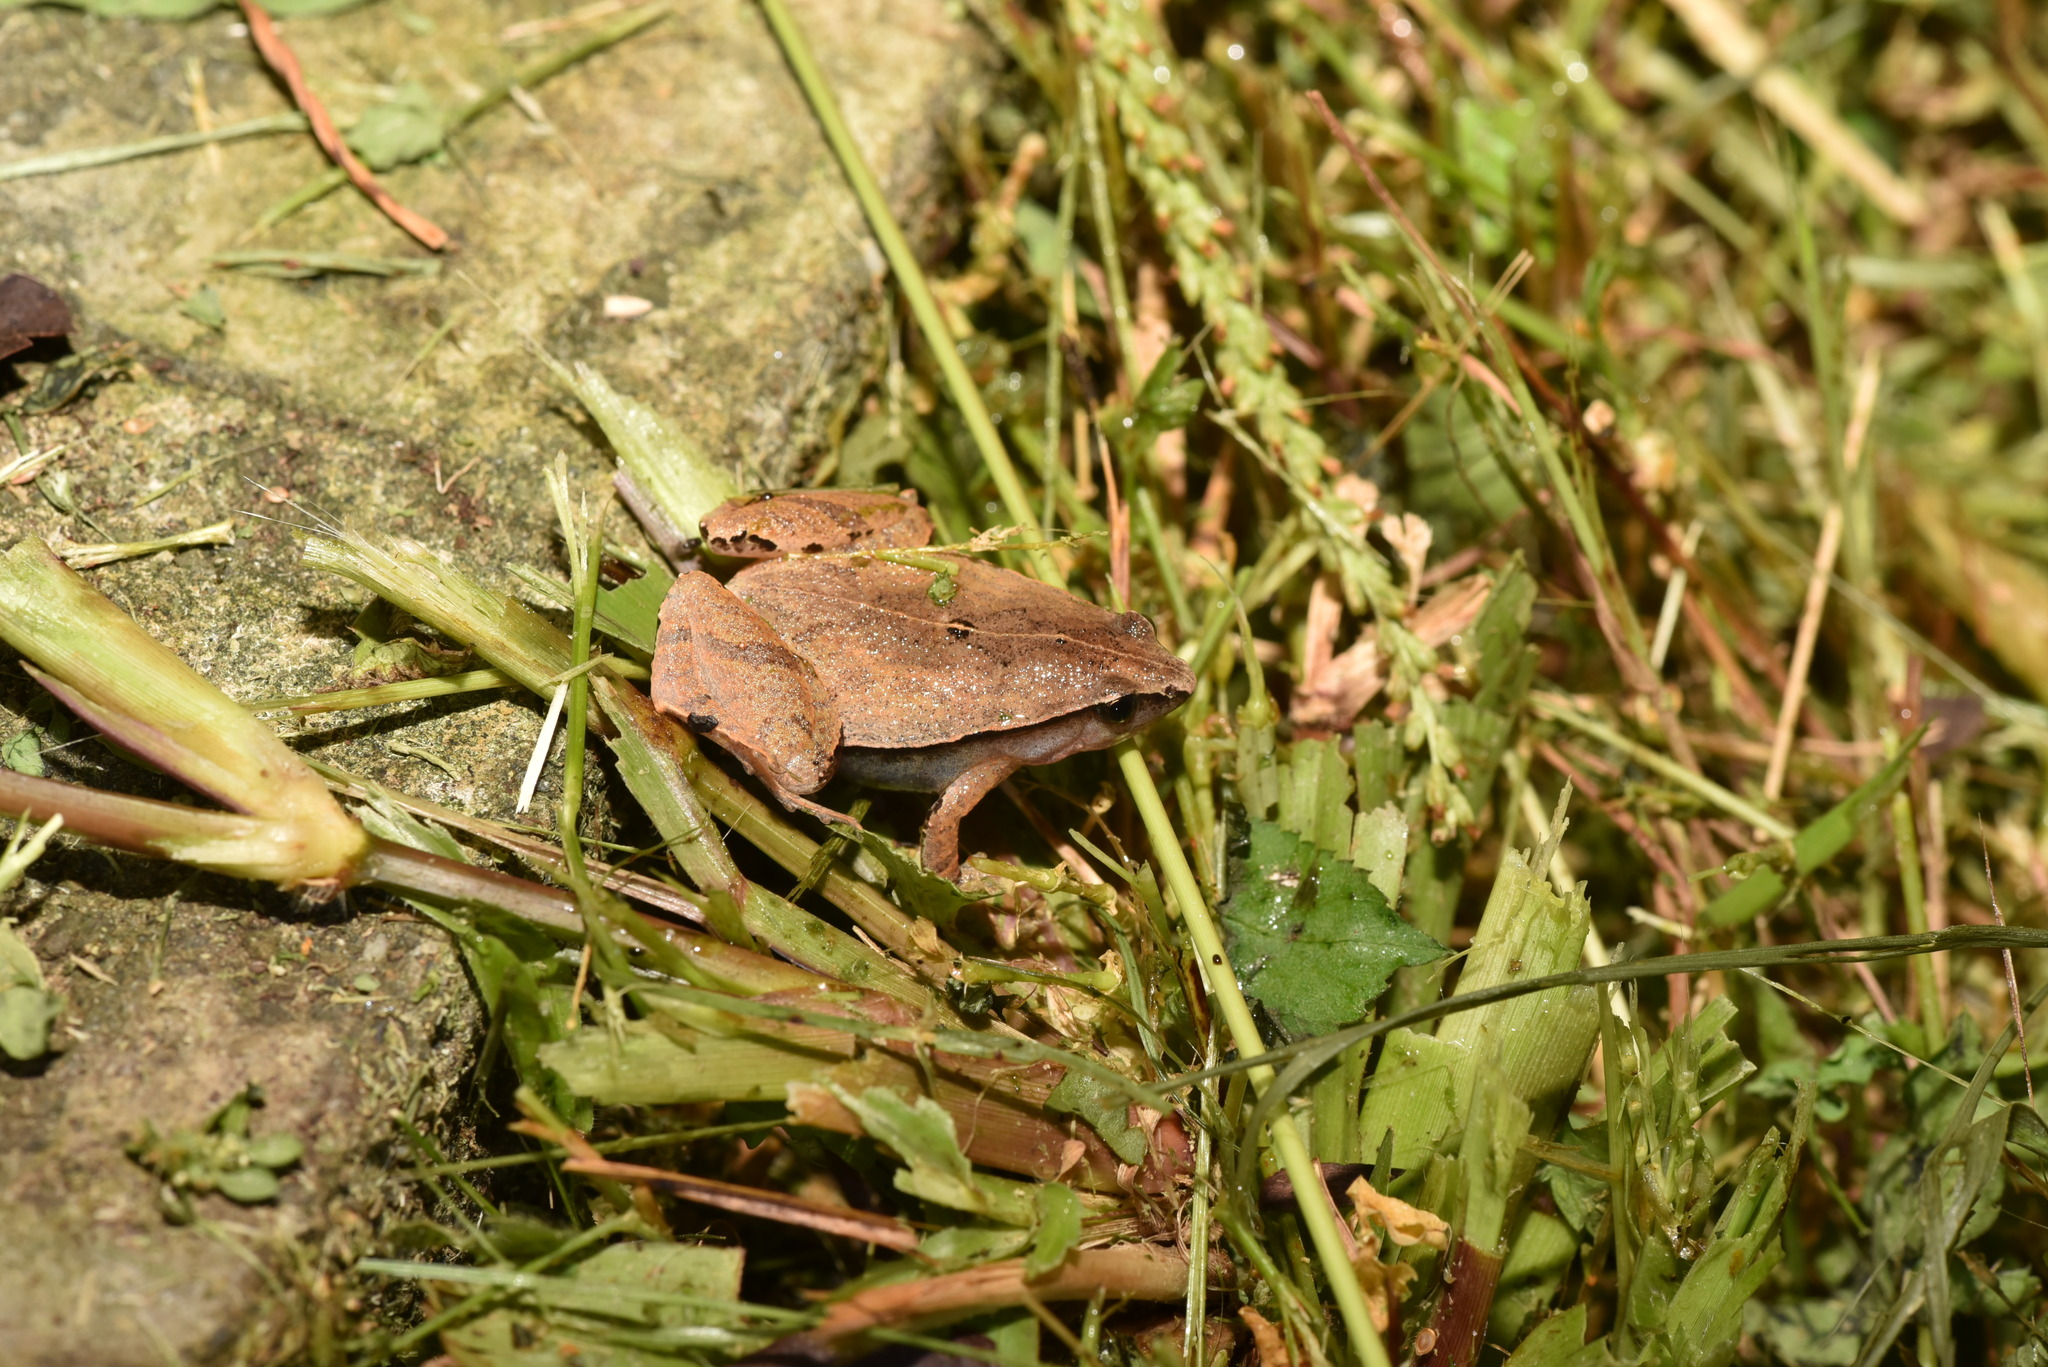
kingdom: Animalia
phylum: Chordata
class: Amphibia
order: Anura
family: Microhylidae
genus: Microhyla
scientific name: Microhyla heymonsi
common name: Taiwan rice frog,dark sided chorus frog
